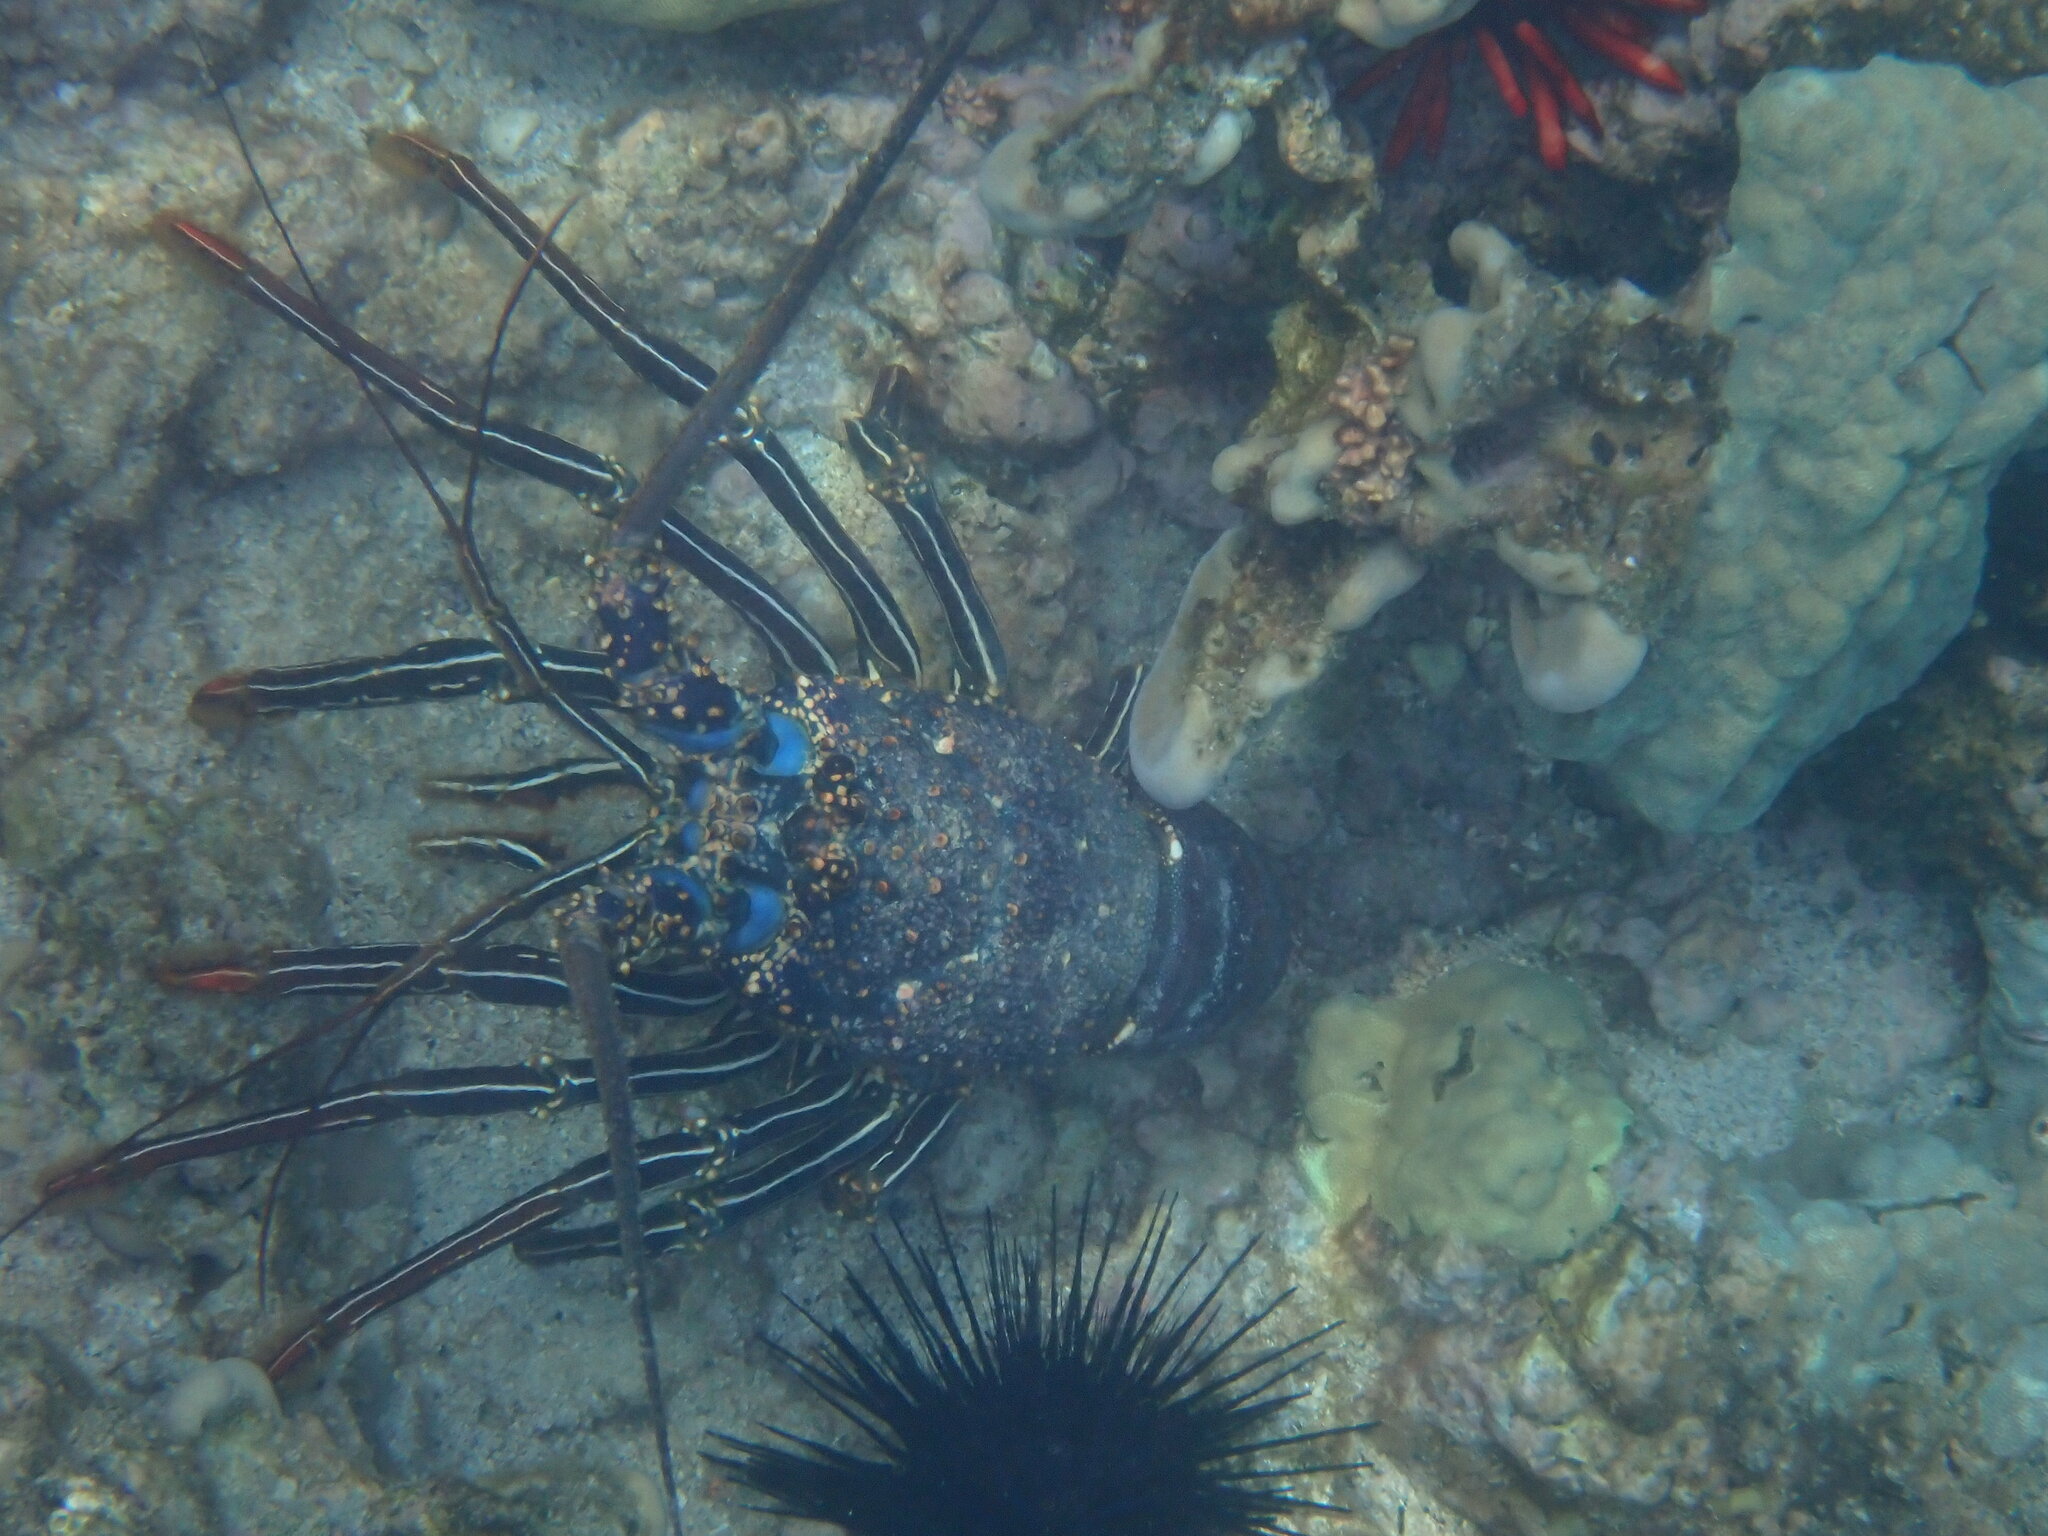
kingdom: Animalia
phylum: Arthropoda
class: Malacostraca
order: Decapoda
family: Palinuridae
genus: Panulirus
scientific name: Panulirus penicillatus
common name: Pronghorn spiny lobster
